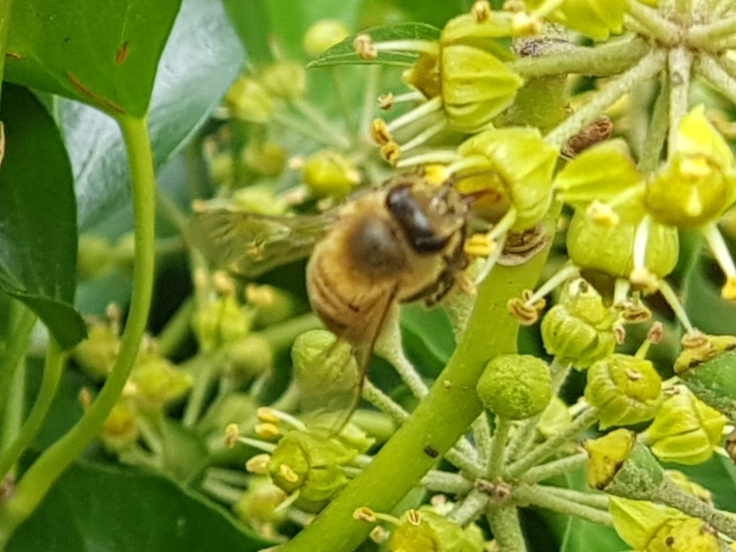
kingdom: Animalia
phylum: Arthropoda
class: Insecta
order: Hymenoptera
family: Apidae
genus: Apis
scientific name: Apis mellifera
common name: Honey bee
